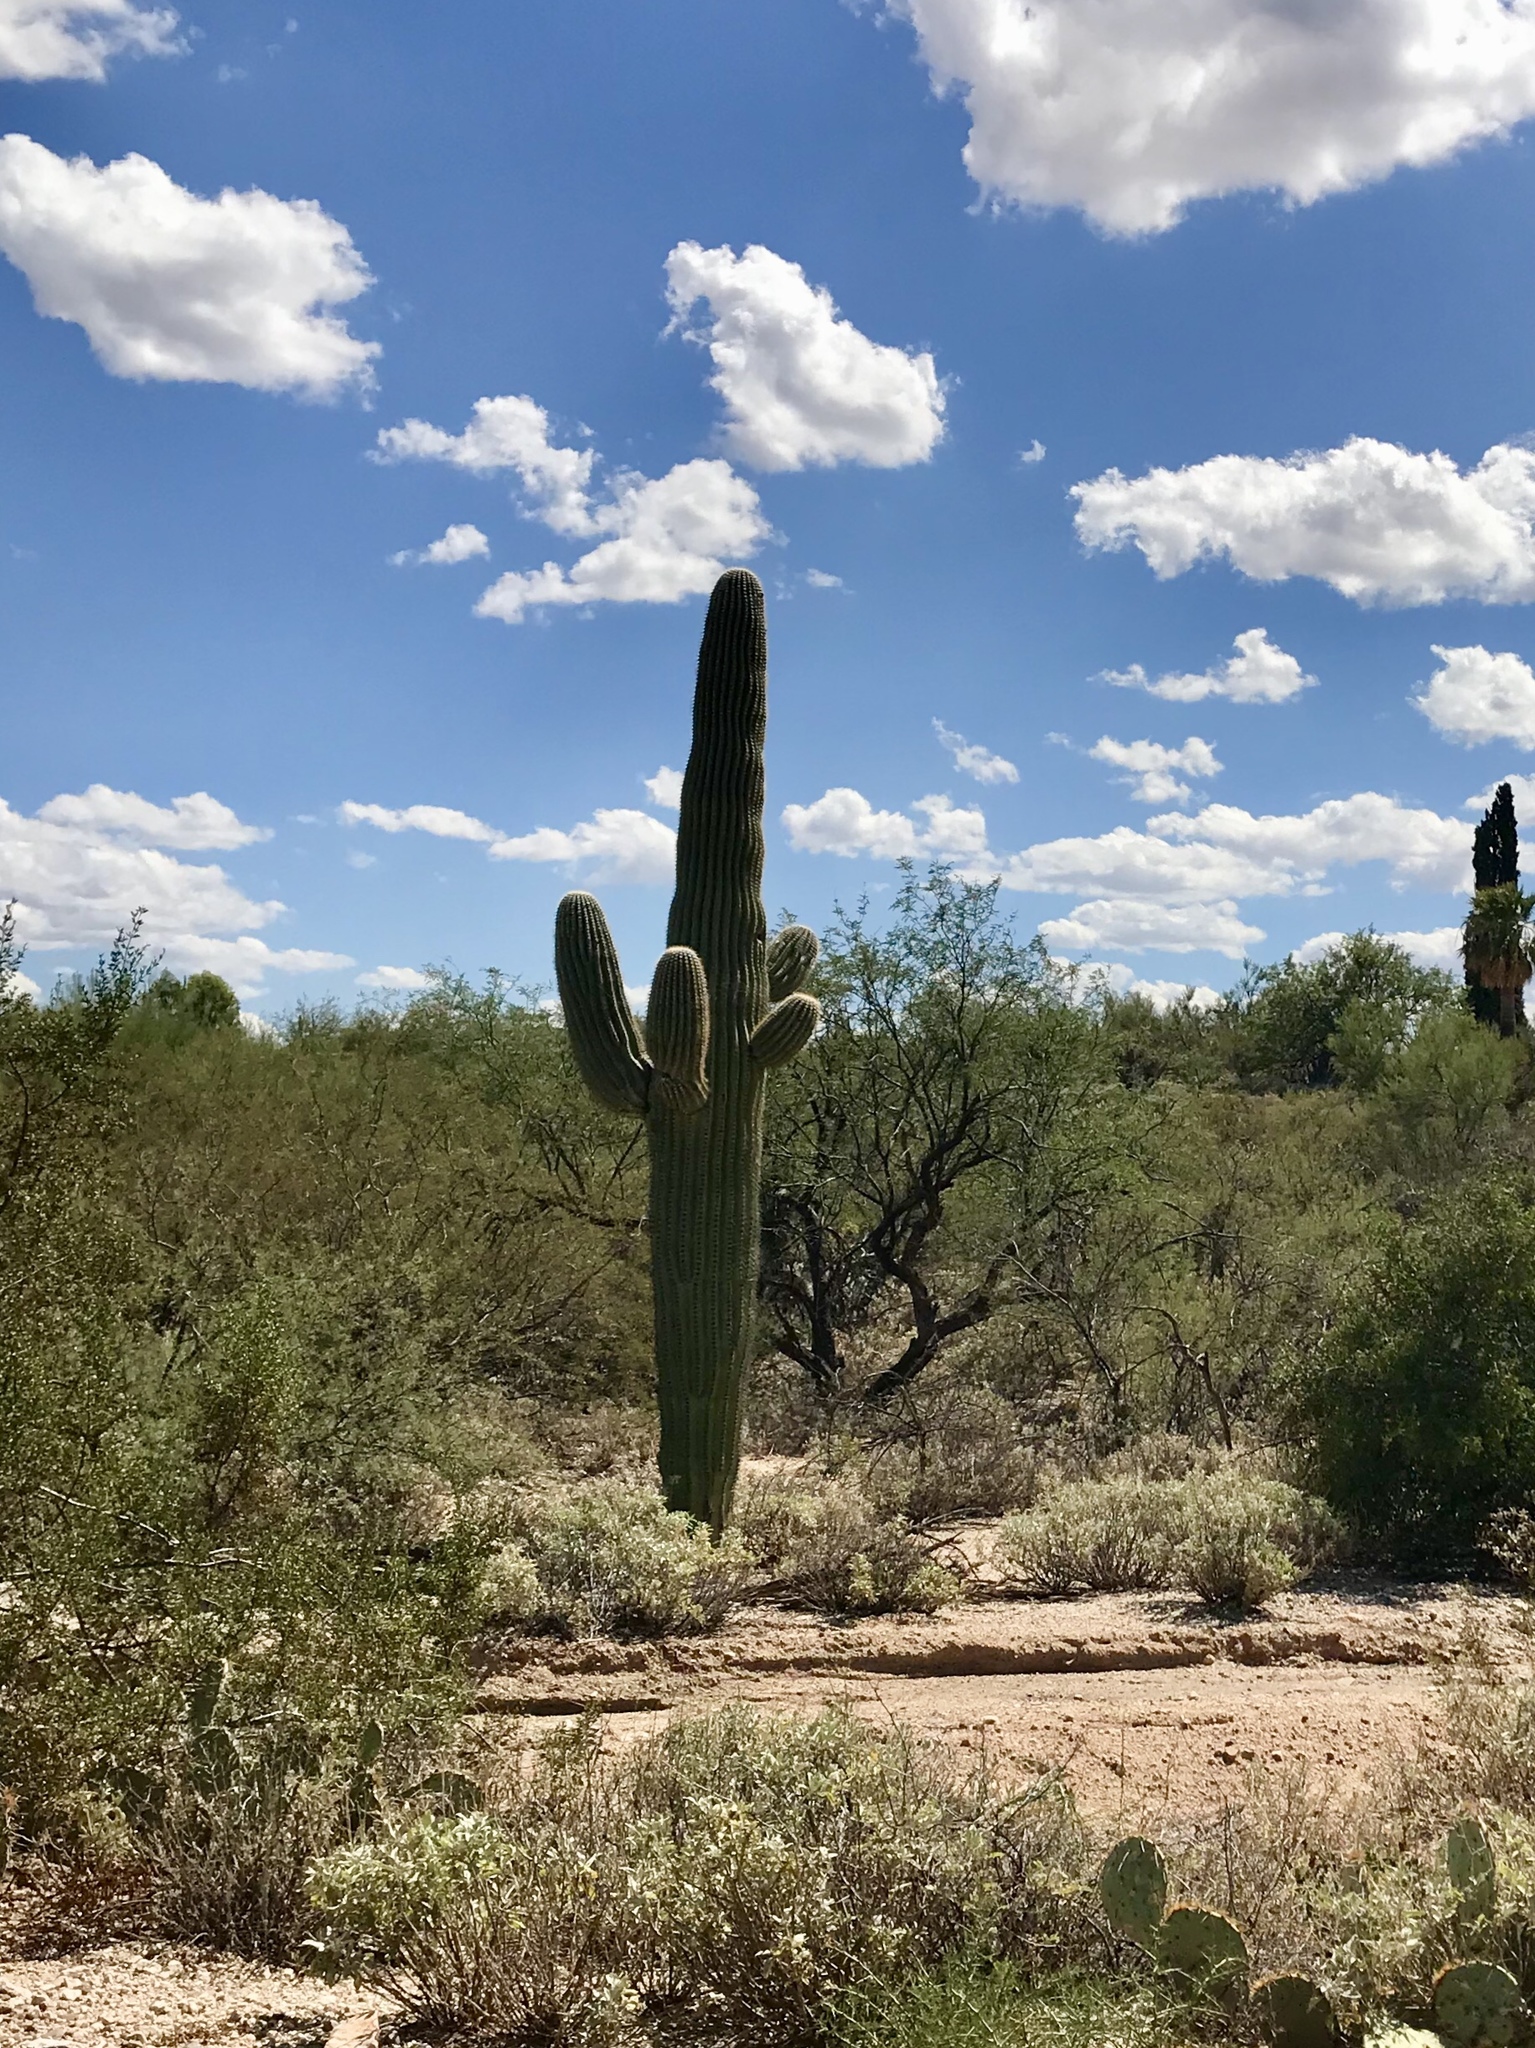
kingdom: Plantae
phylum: Tracheophyta
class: Magnoliopsida
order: Caryophyllales
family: Cactaceae
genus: Carnegiea
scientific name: Carnegiea gigantea
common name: Saguaro
